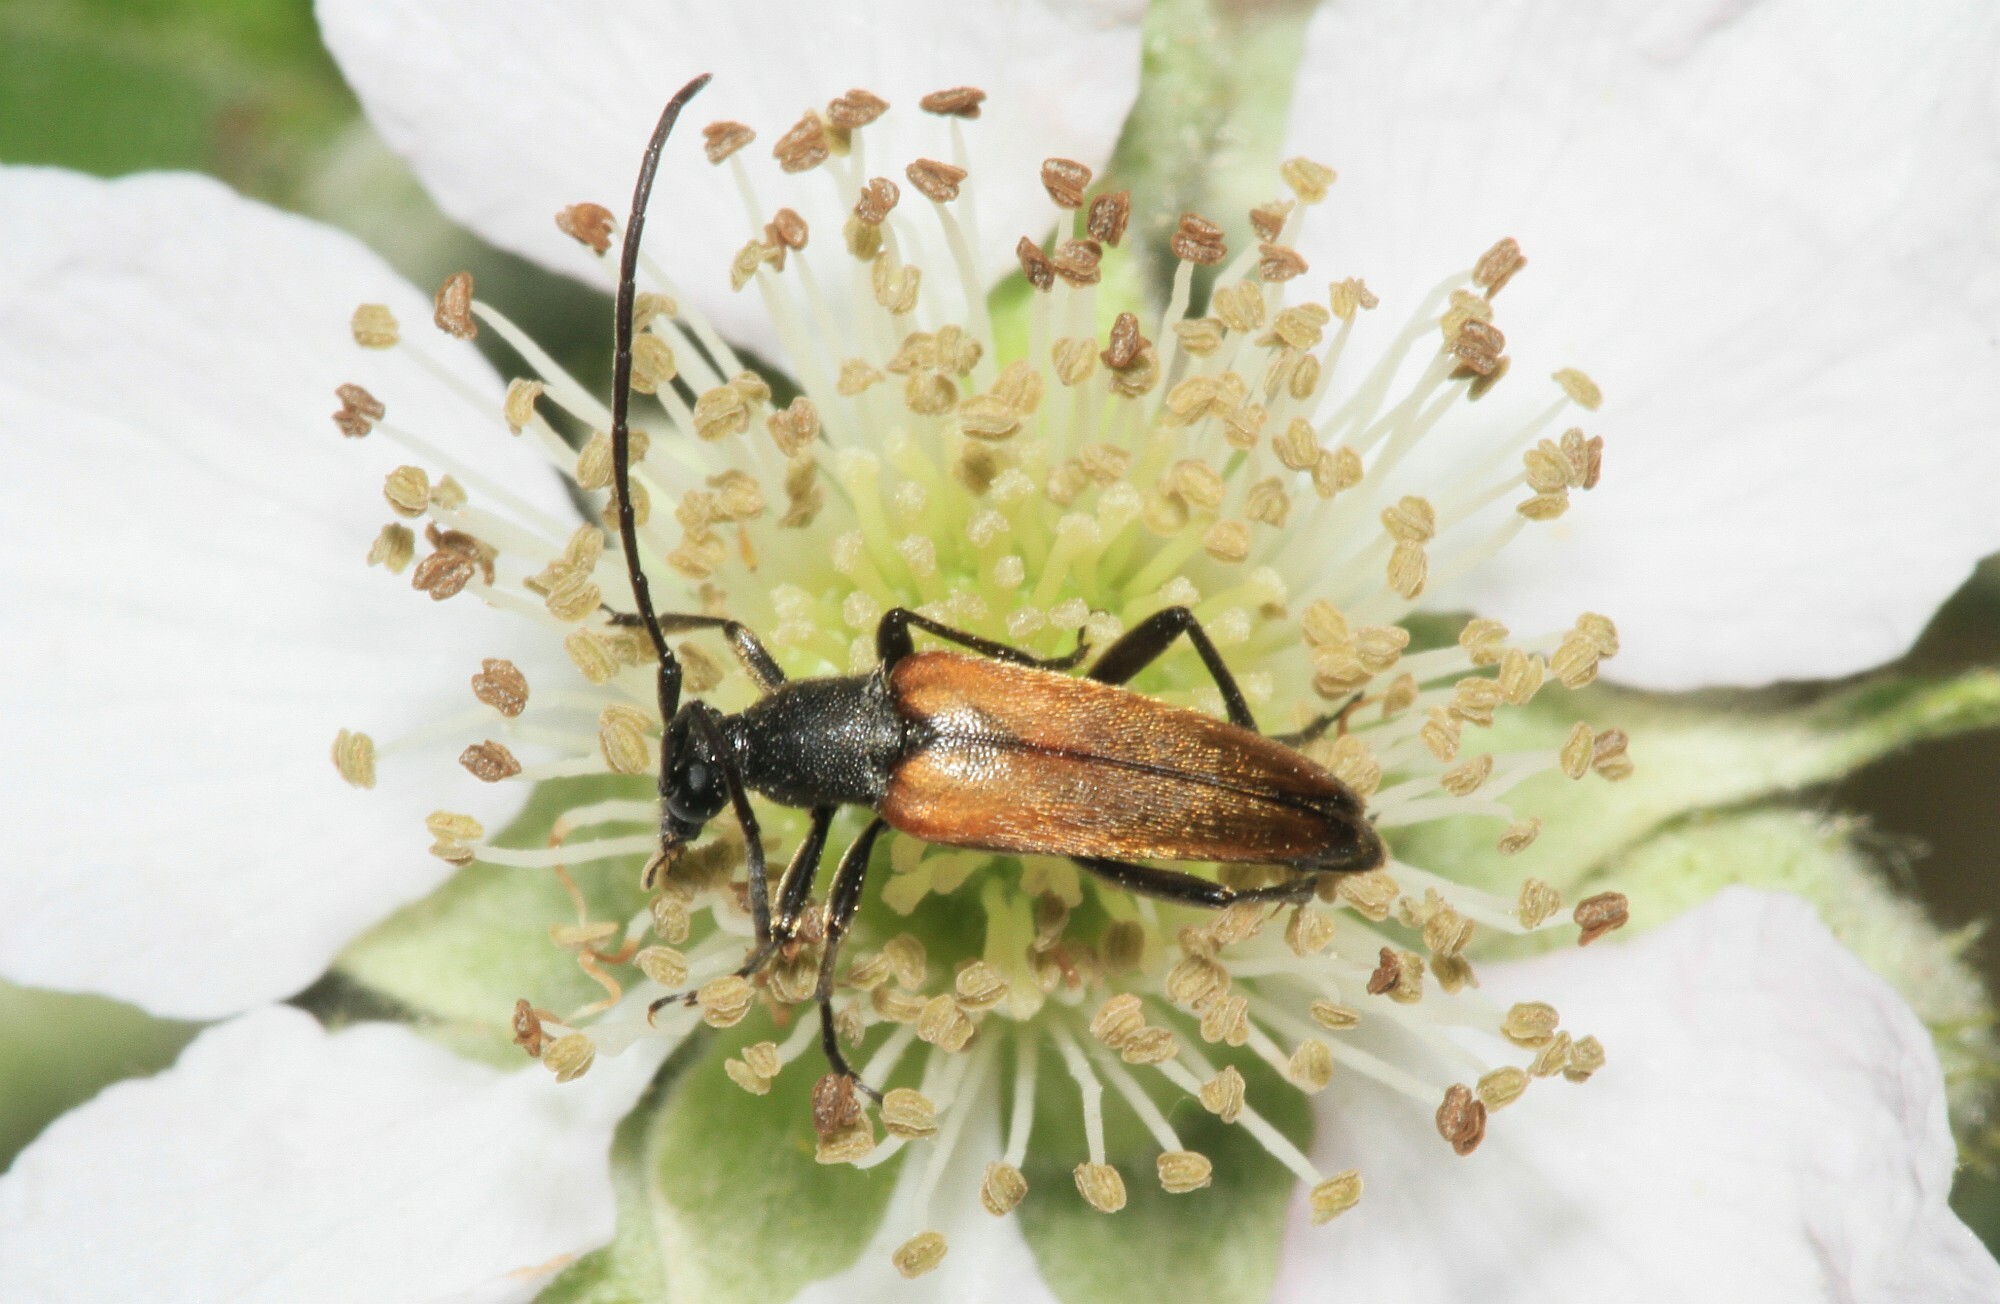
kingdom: Animalia
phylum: Arthropoda
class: Insecta
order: Coleoptera
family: Cerambycidae
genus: Stenurella
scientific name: Stenurella melanura
